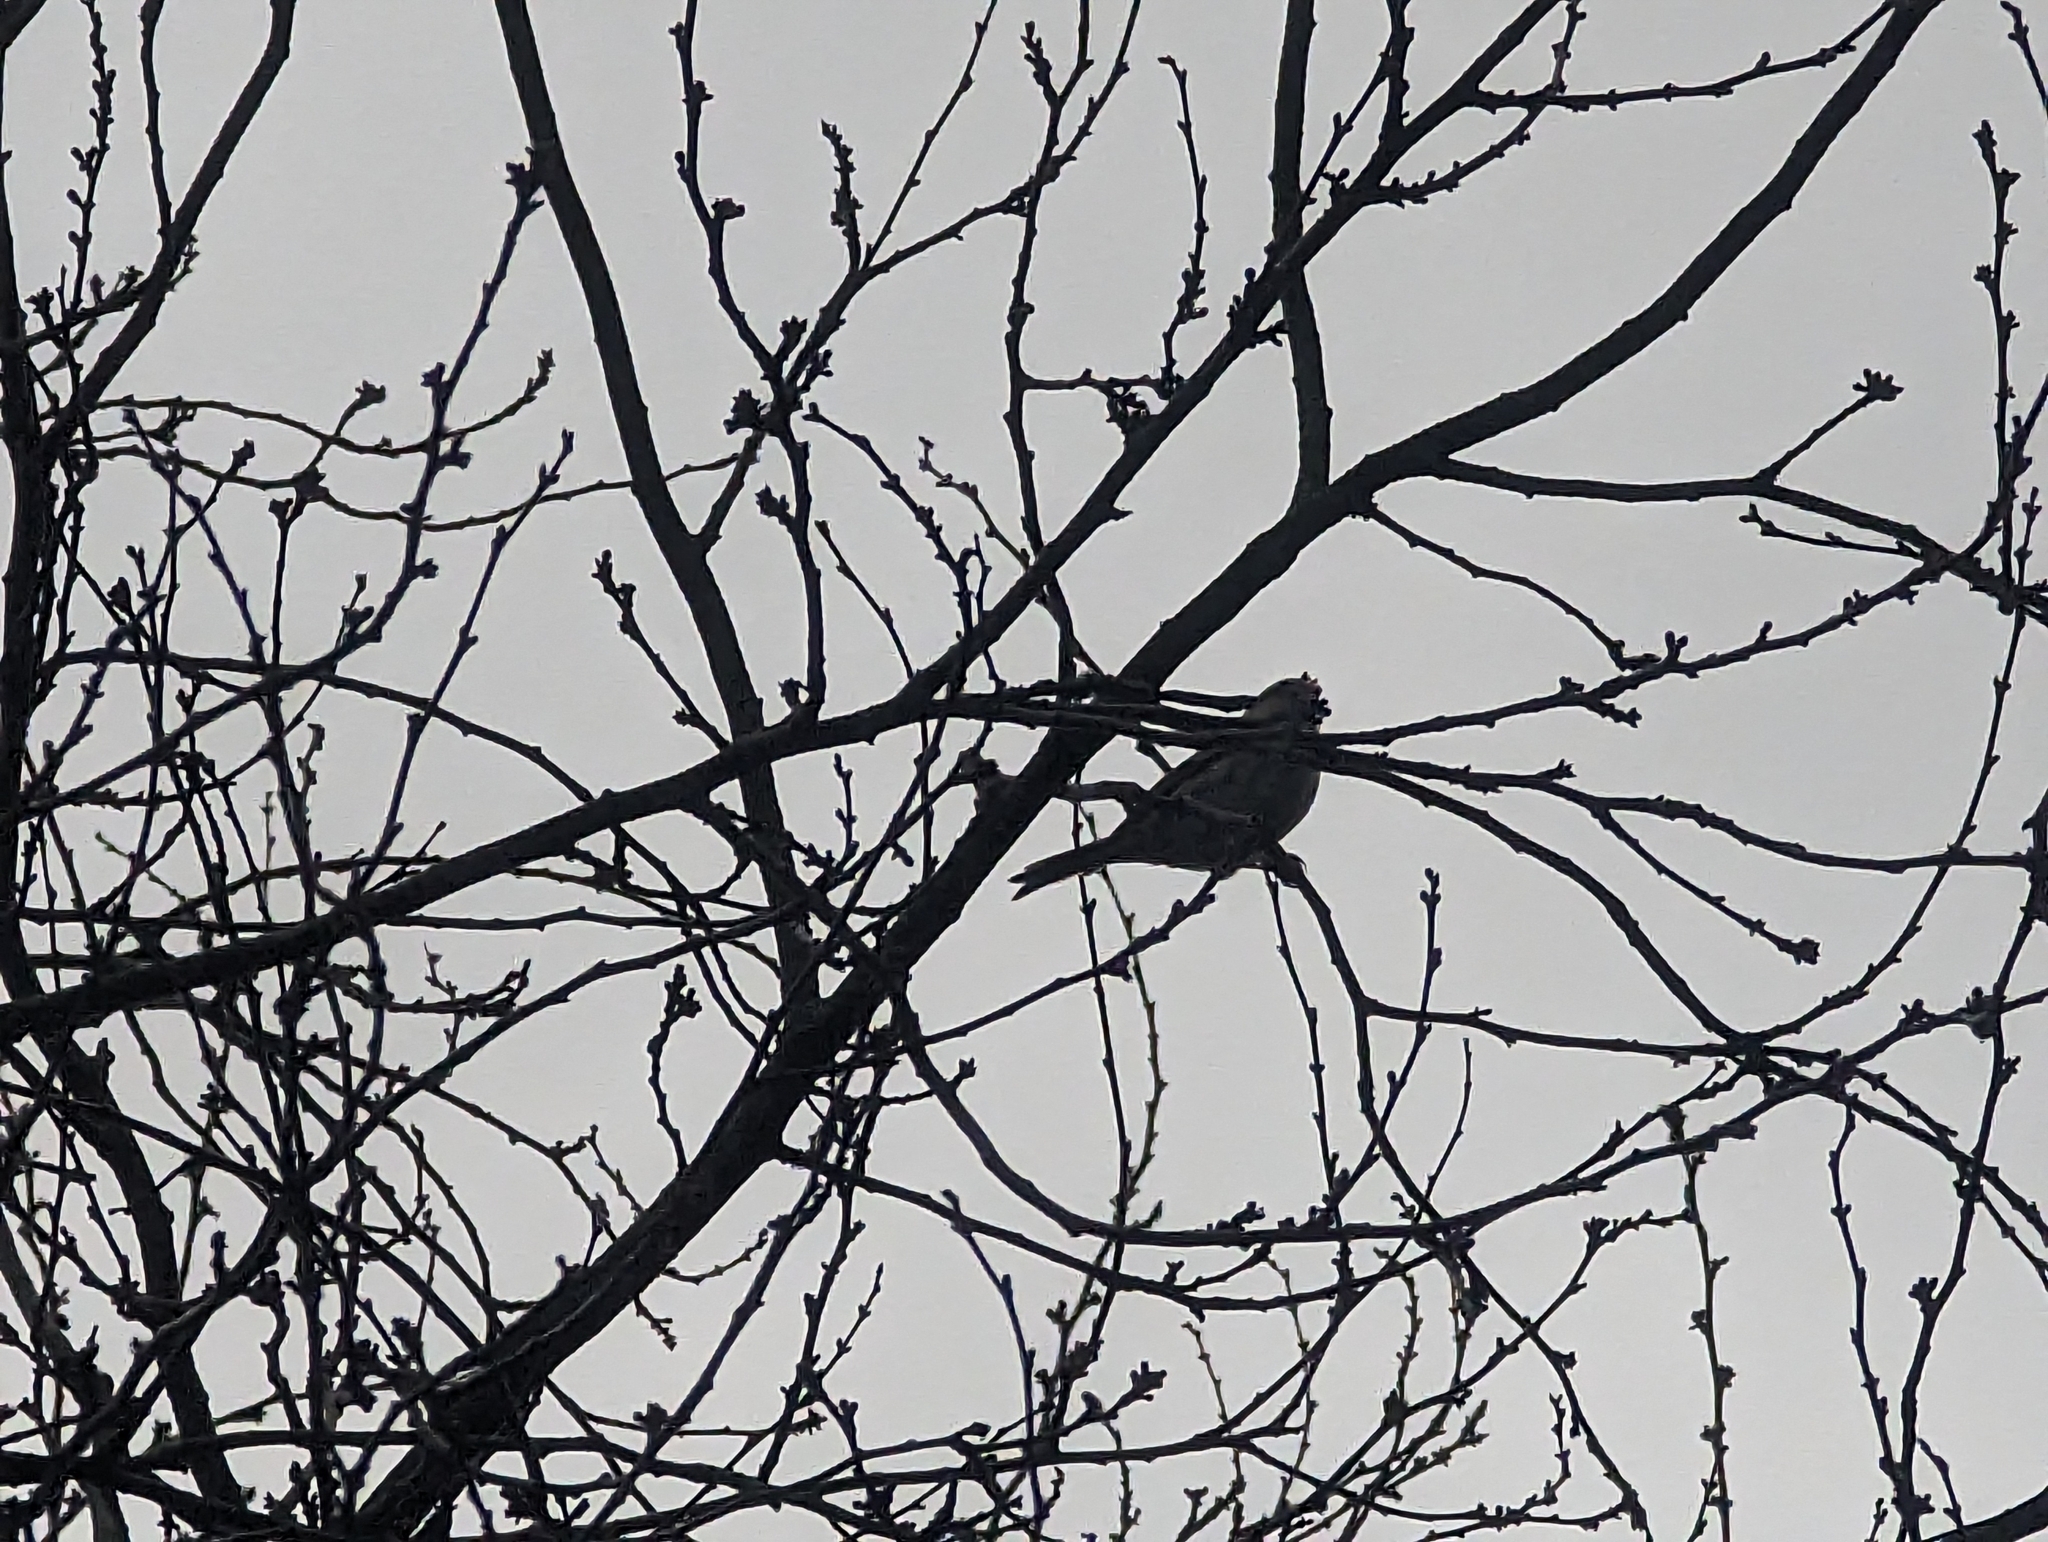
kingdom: Animalia
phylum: Chordata
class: Aves
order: Passeriformes
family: Fringillidae
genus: Acanthis
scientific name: Acanthis flammea
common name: Common redpoll
